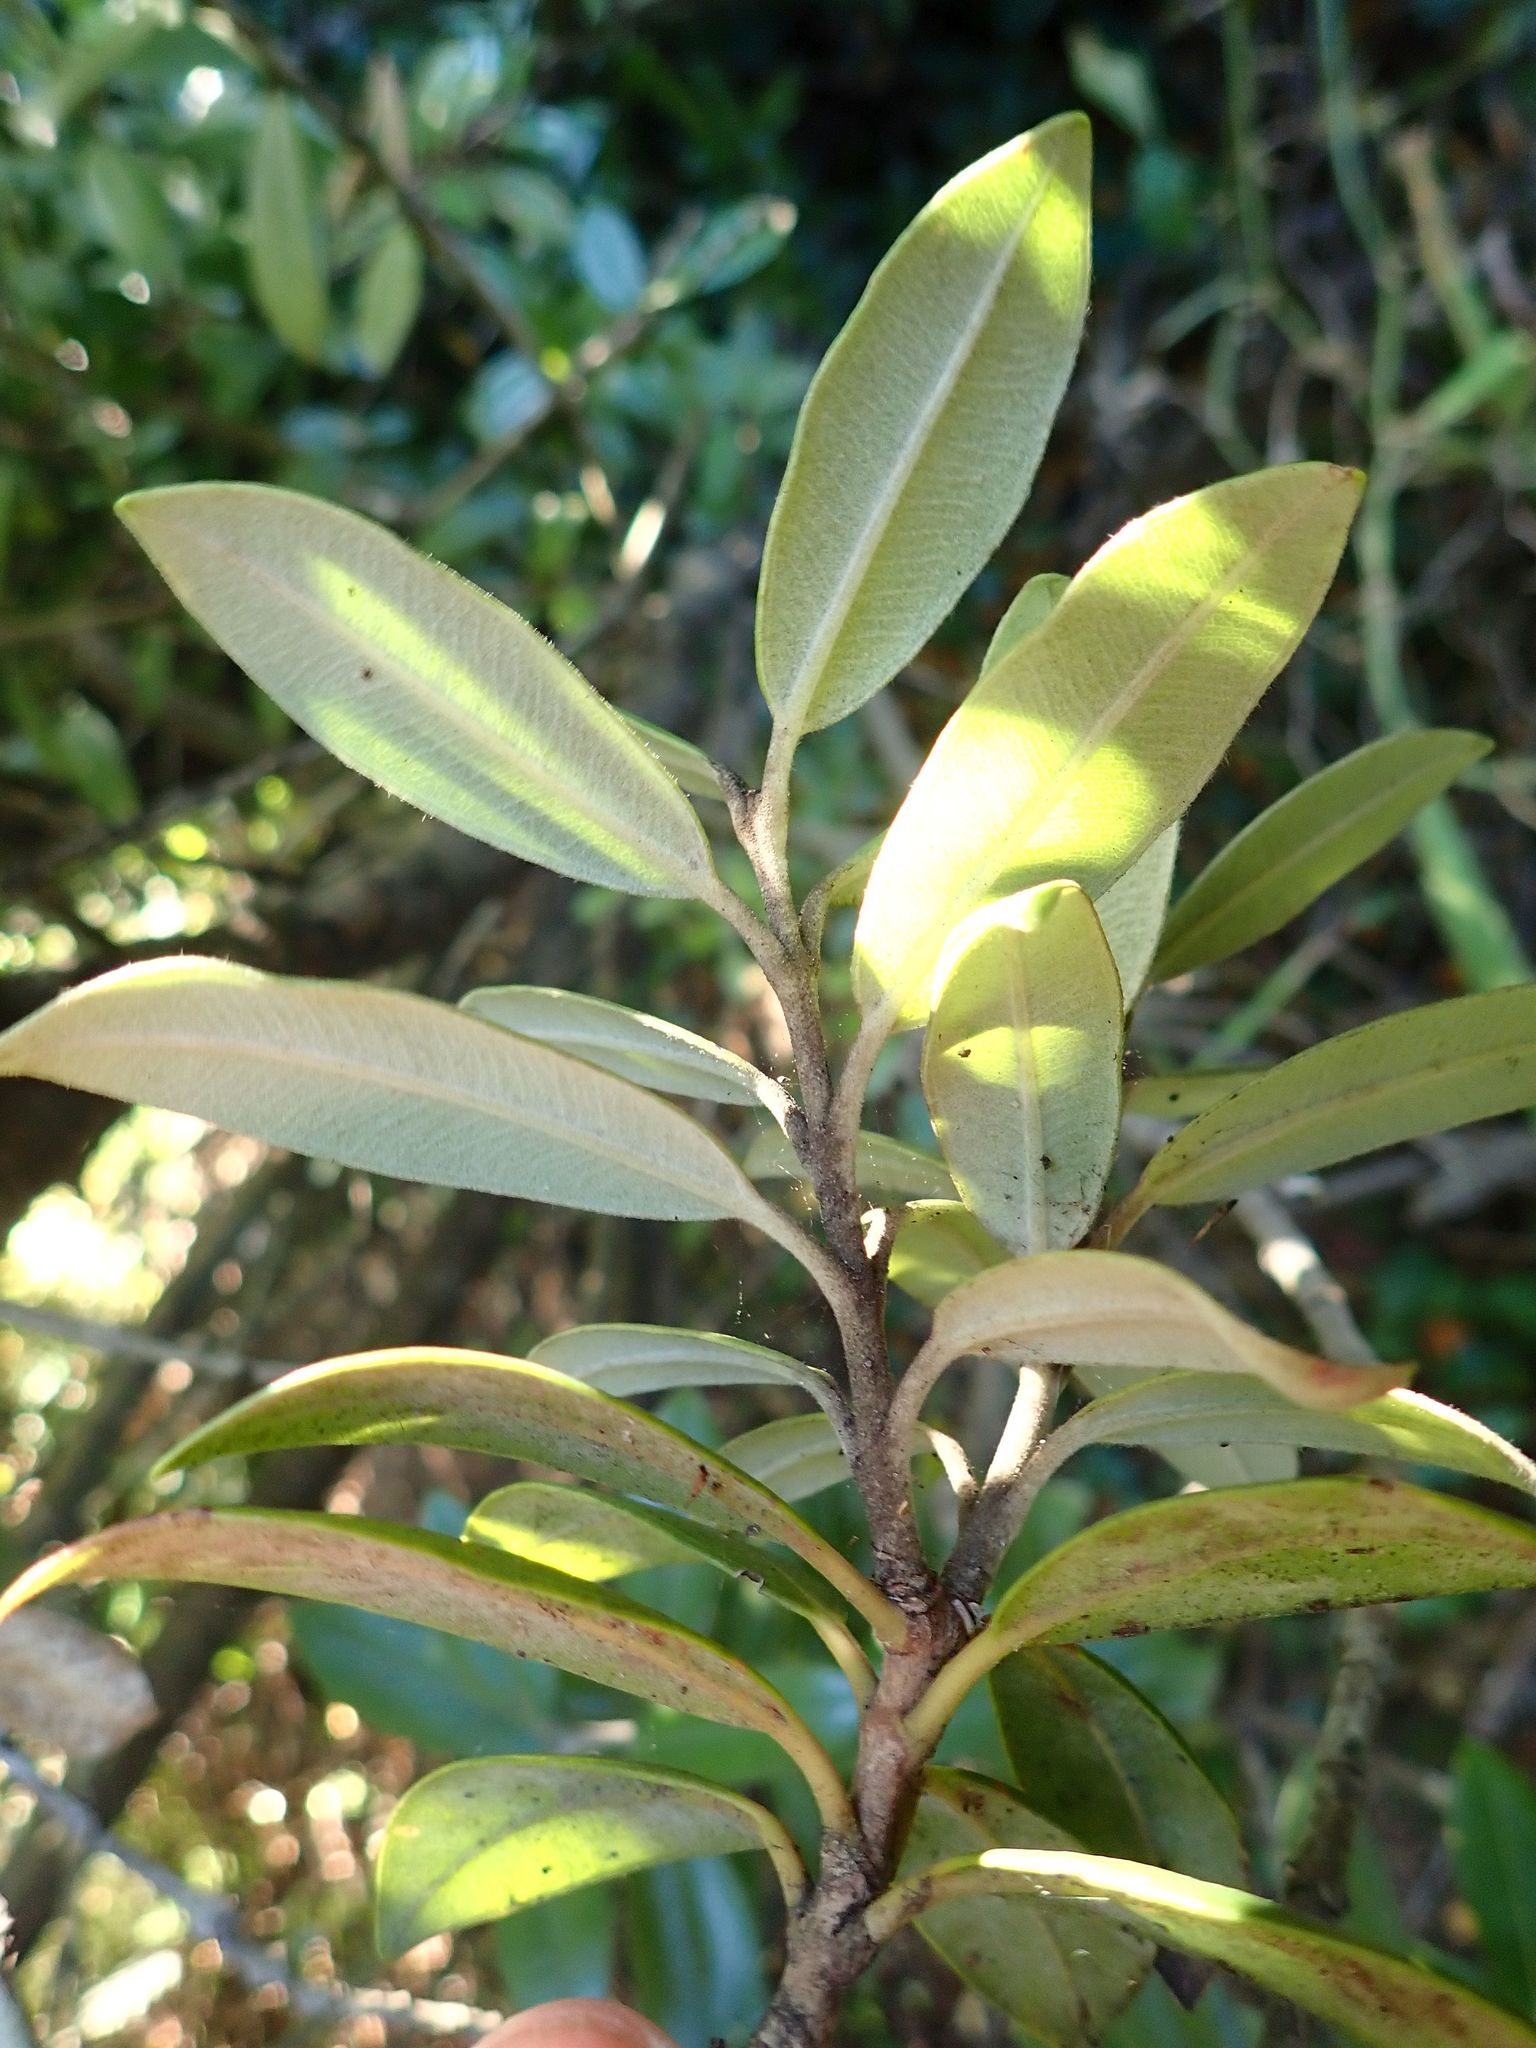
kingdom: Plantae
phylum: Tracheophyta
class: Magnoliopsida
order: Myrtales
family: Myrtaceae
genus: Metrosideros
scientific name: Metrosideros excelsa
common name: New zealand christmastree
